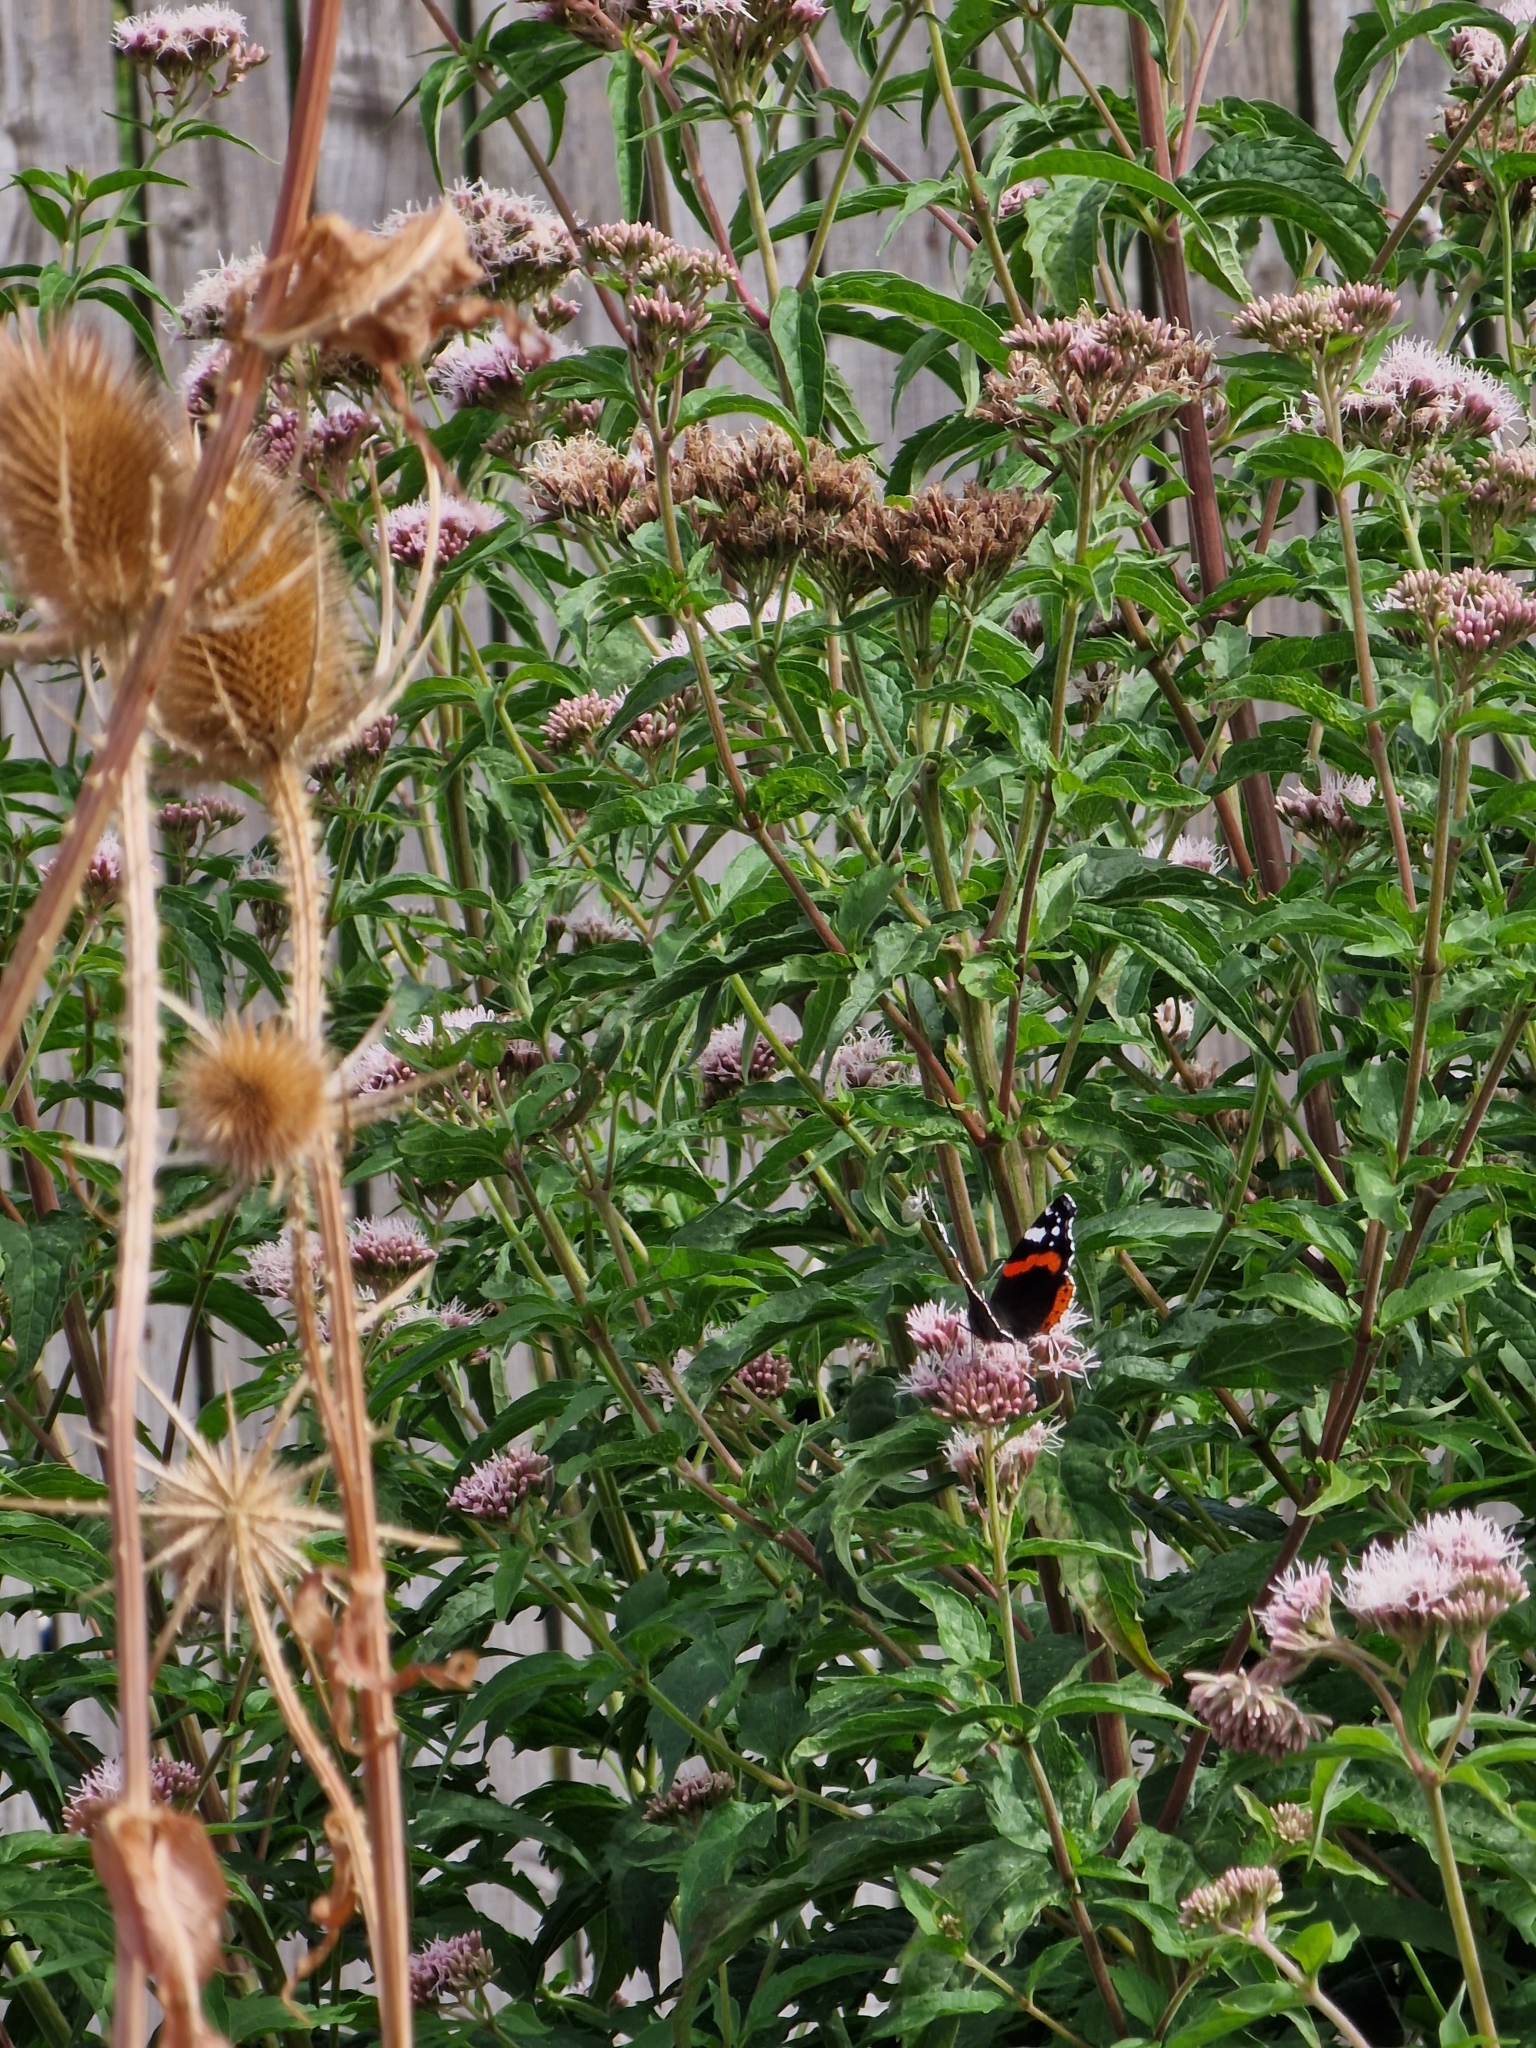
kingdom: Animalia
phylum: Arthropoda
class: Insecta
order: Lepidoptera
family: Nymphalidae
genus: Vanessa
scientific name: Vanessa atalanta
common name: Red admiral
